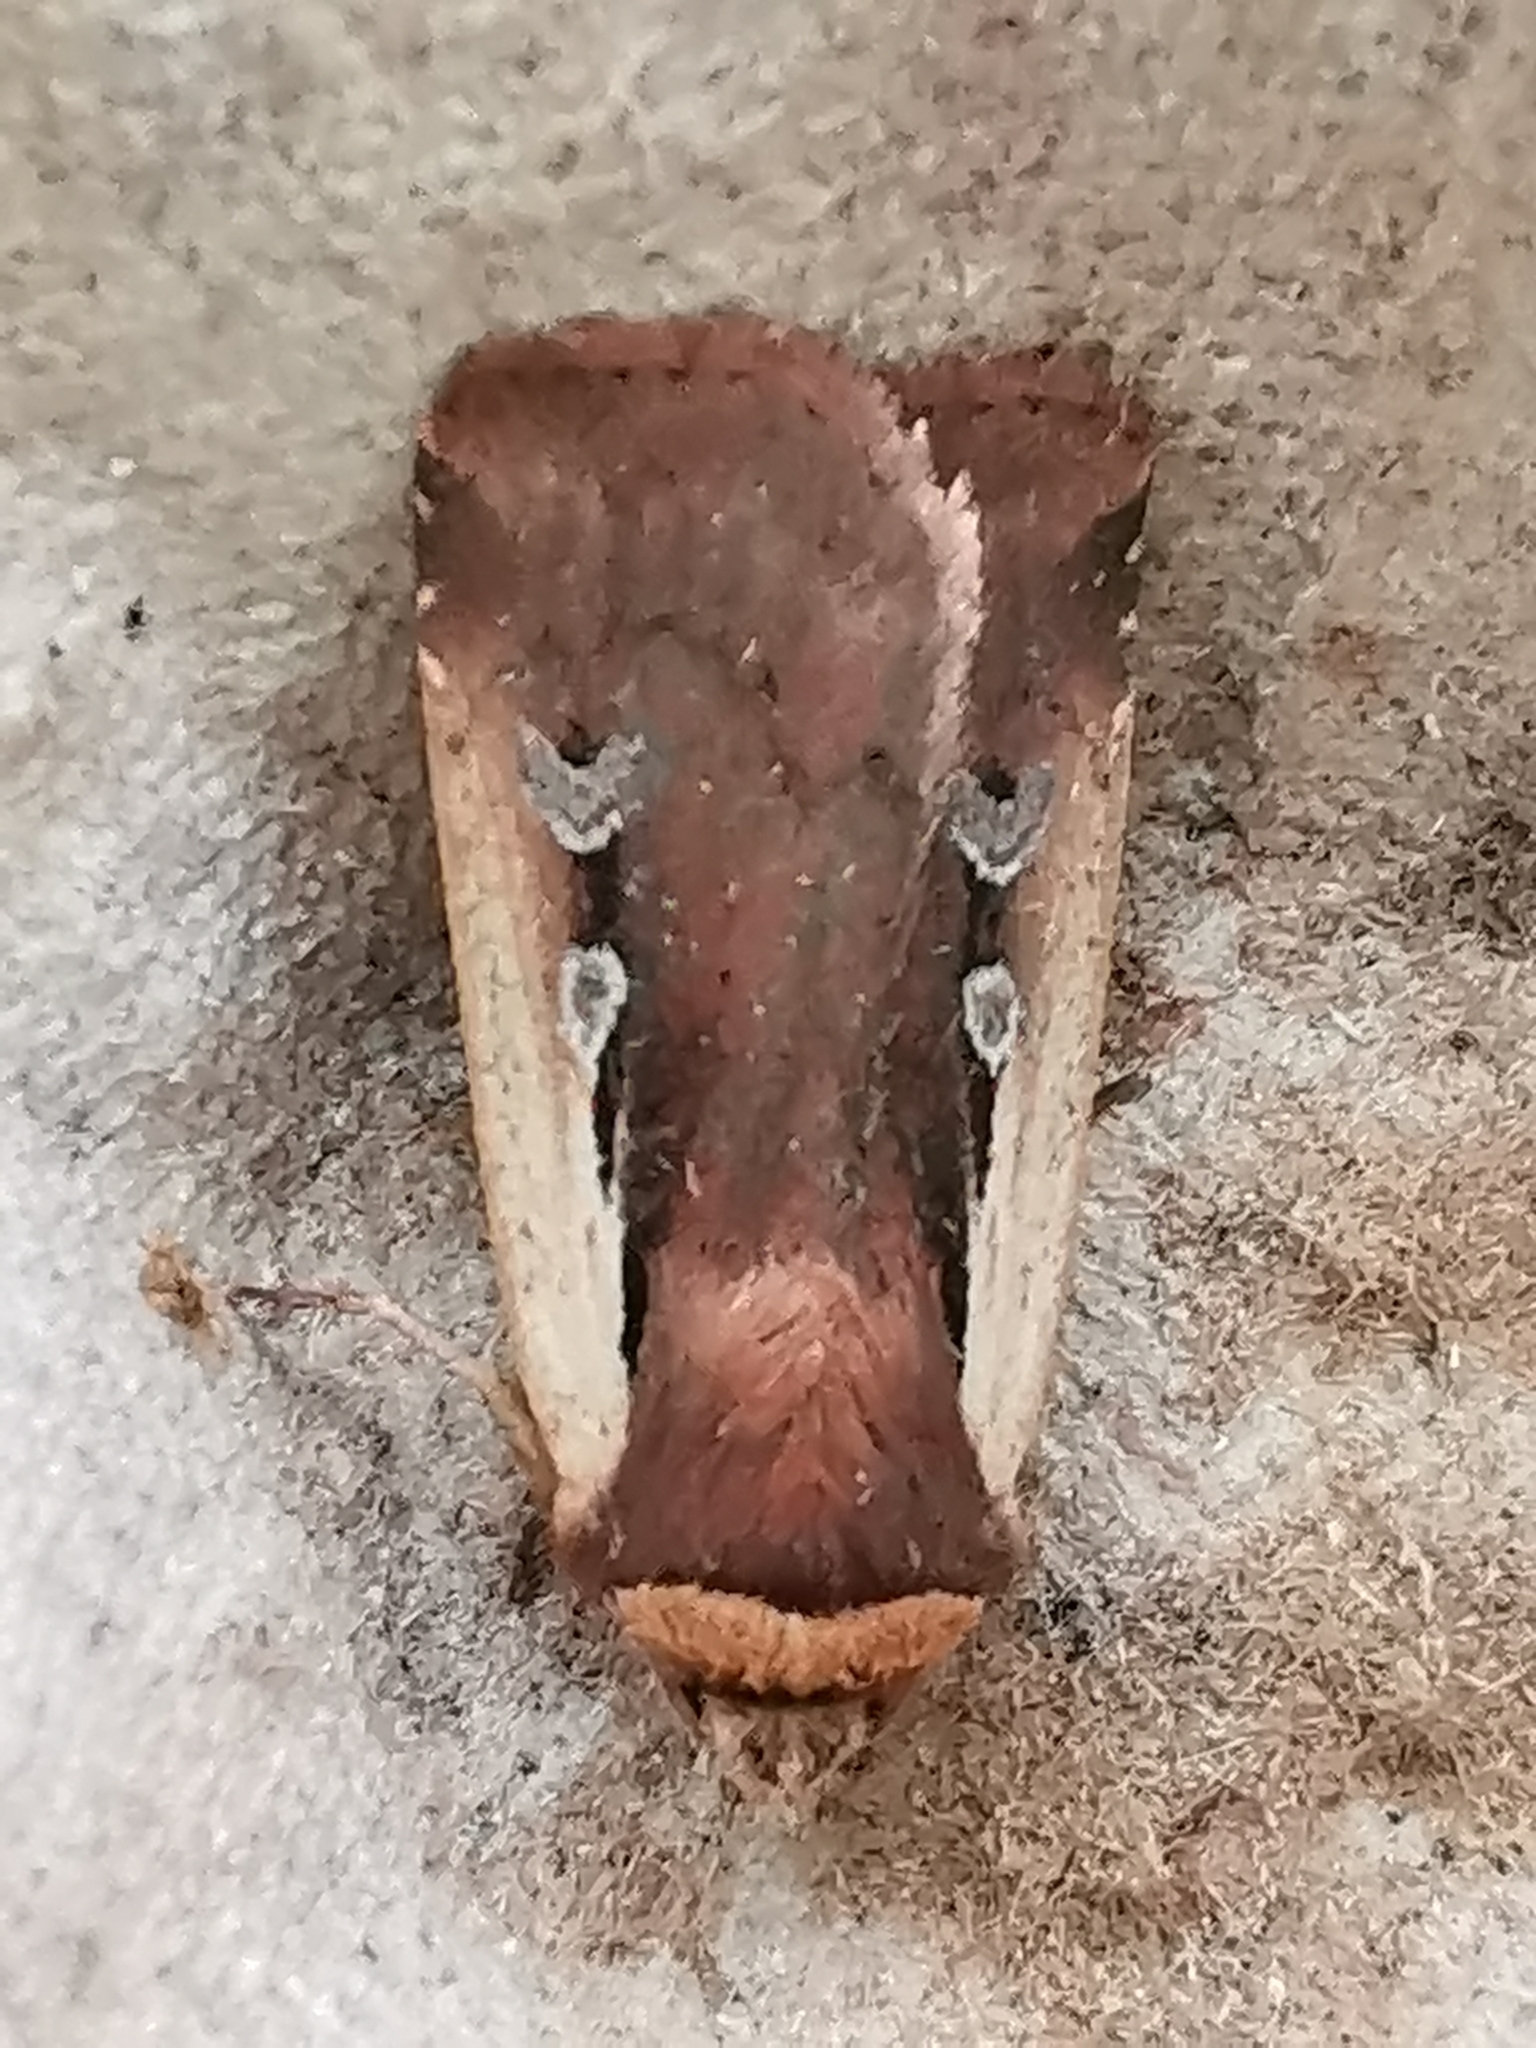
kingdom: Animalia
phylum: Arthropoda
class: Insecta
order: Lepidoptera
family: Noctuidae
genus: Ochropleura
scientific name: Ochropleura plecta
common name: Flame shoulder
